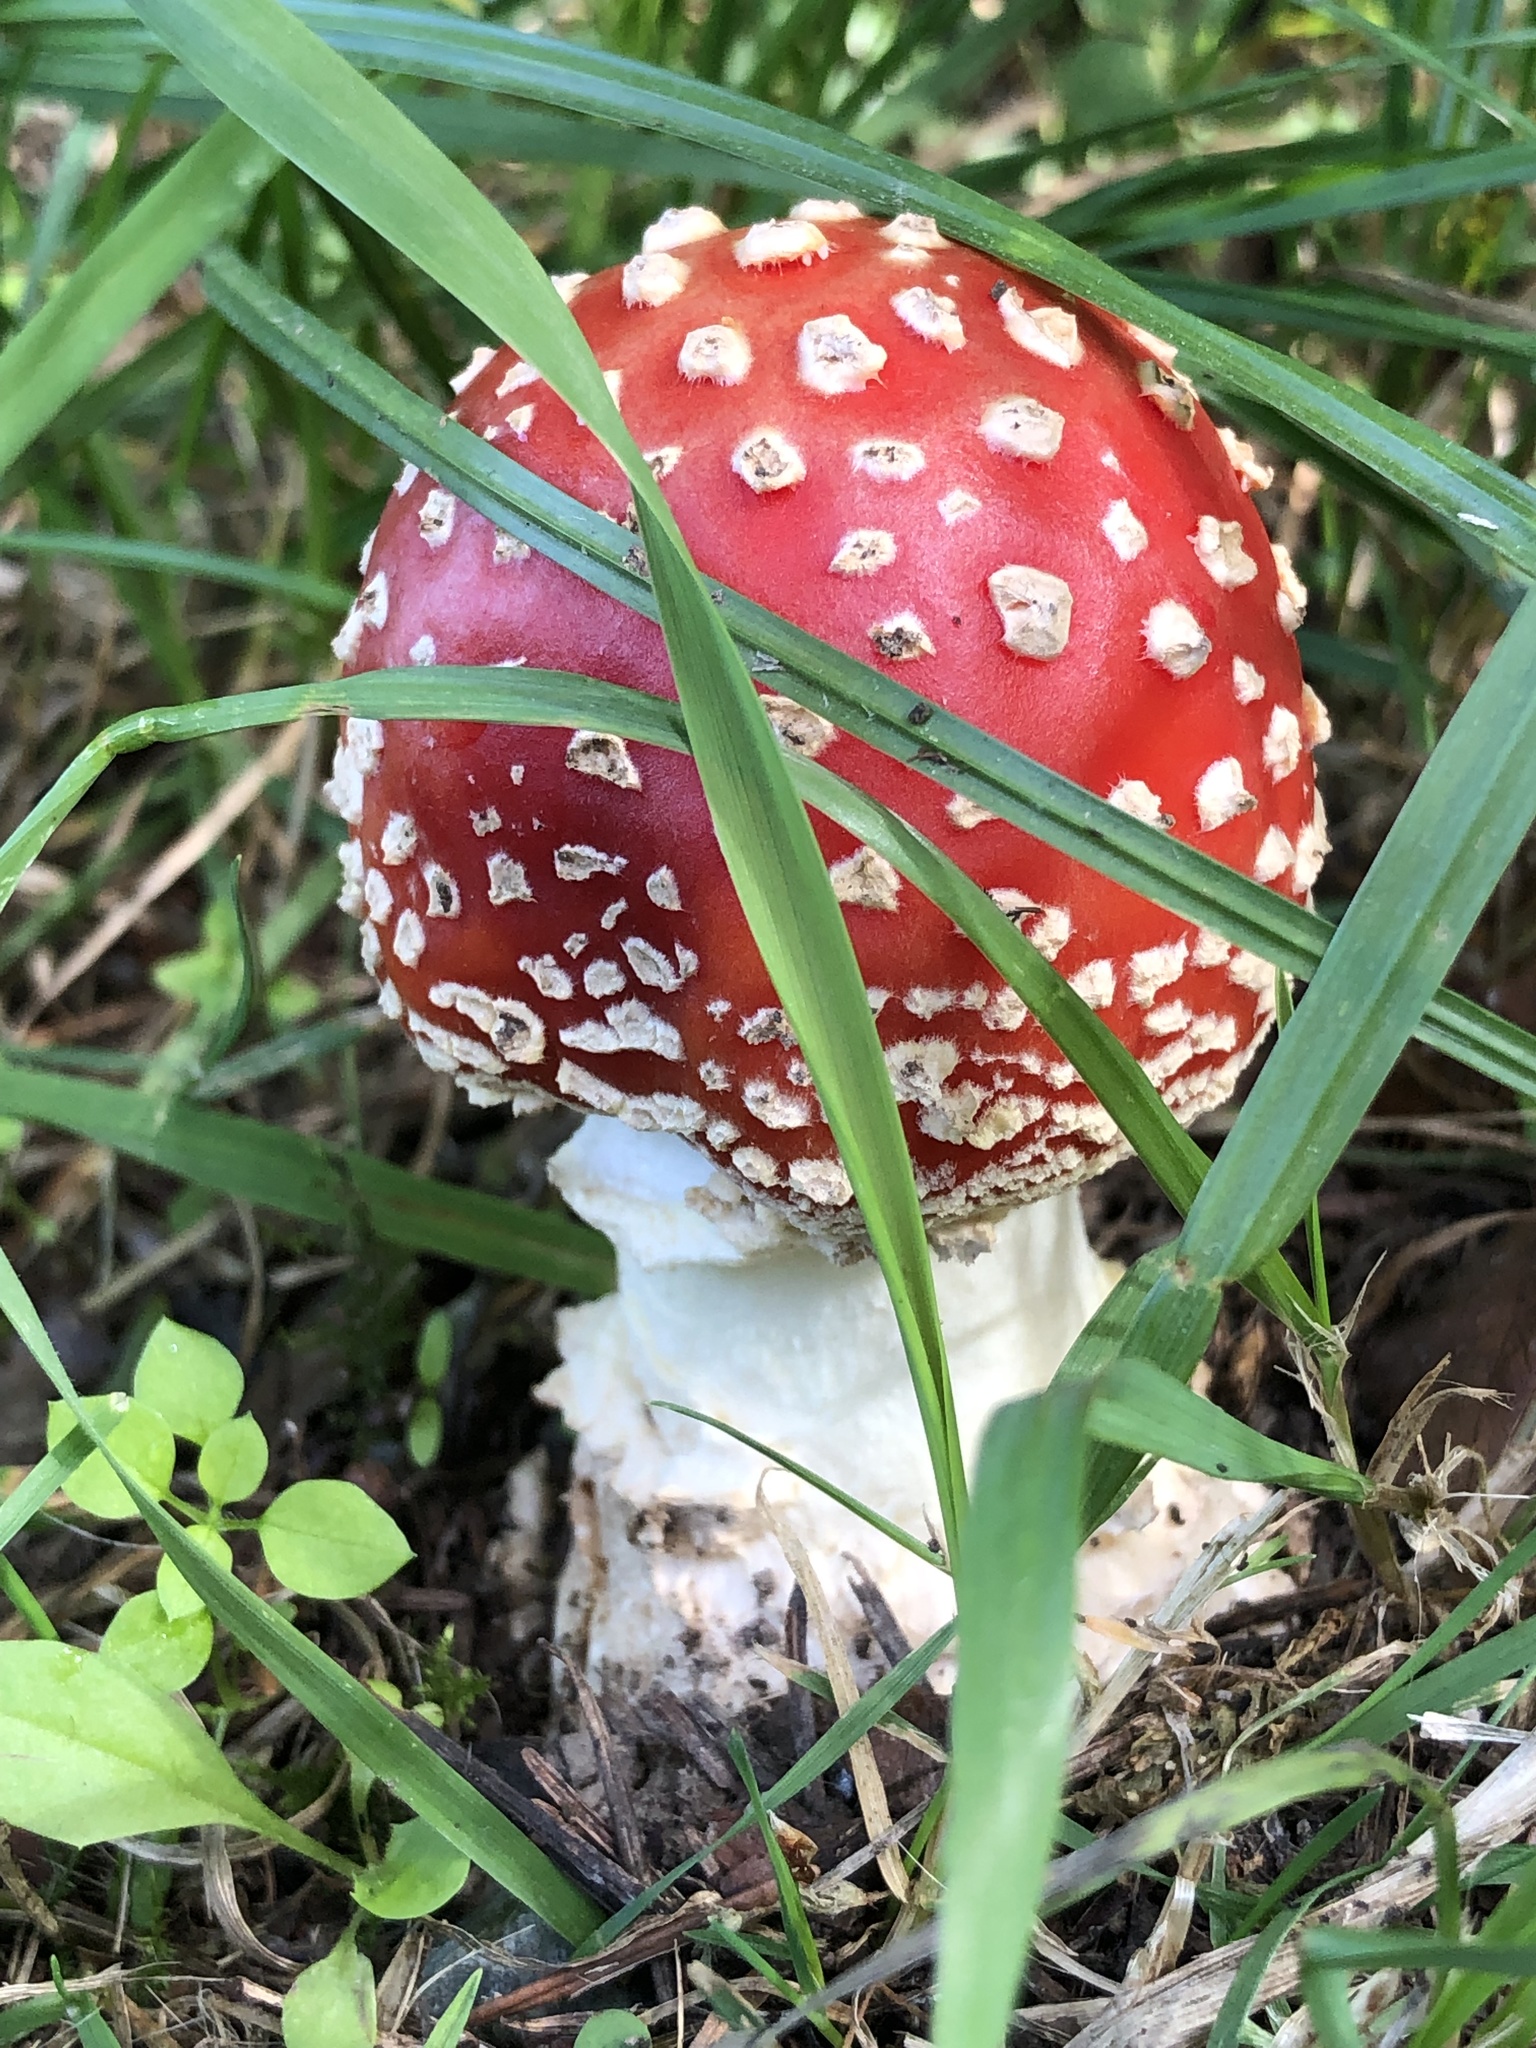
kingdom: Fungi
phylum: Basidiomycota
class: Agaricomycetes
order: Agaricales
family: Amanitaceae
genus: Amanita
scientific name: Amanita muscaria
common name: Fly agaric
